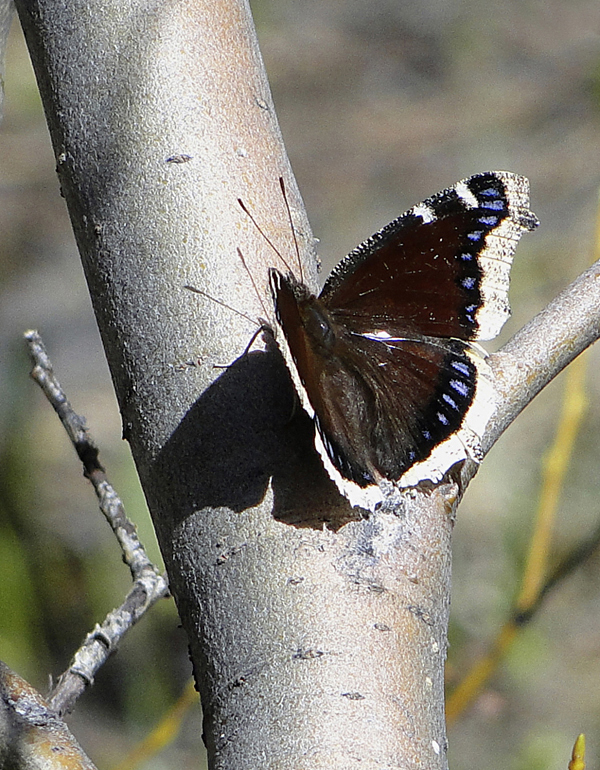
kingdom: Animalia
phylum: Arthropoda
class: Insecta
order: Lepidoptera
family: Nymphalidae
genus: Nymphalis
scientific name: Nymphalis antiopa
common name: Camberwell beauty
